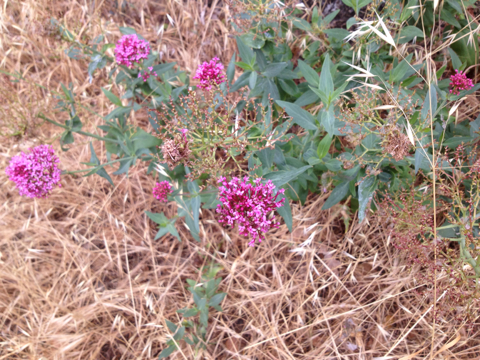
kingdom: Plantae
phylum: Tracheophyta
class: Magnoliopsida
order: Dipsacales
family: Caprifoliaceae
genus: Centranthus
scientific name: Centranthus ruber
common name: Red valerian
